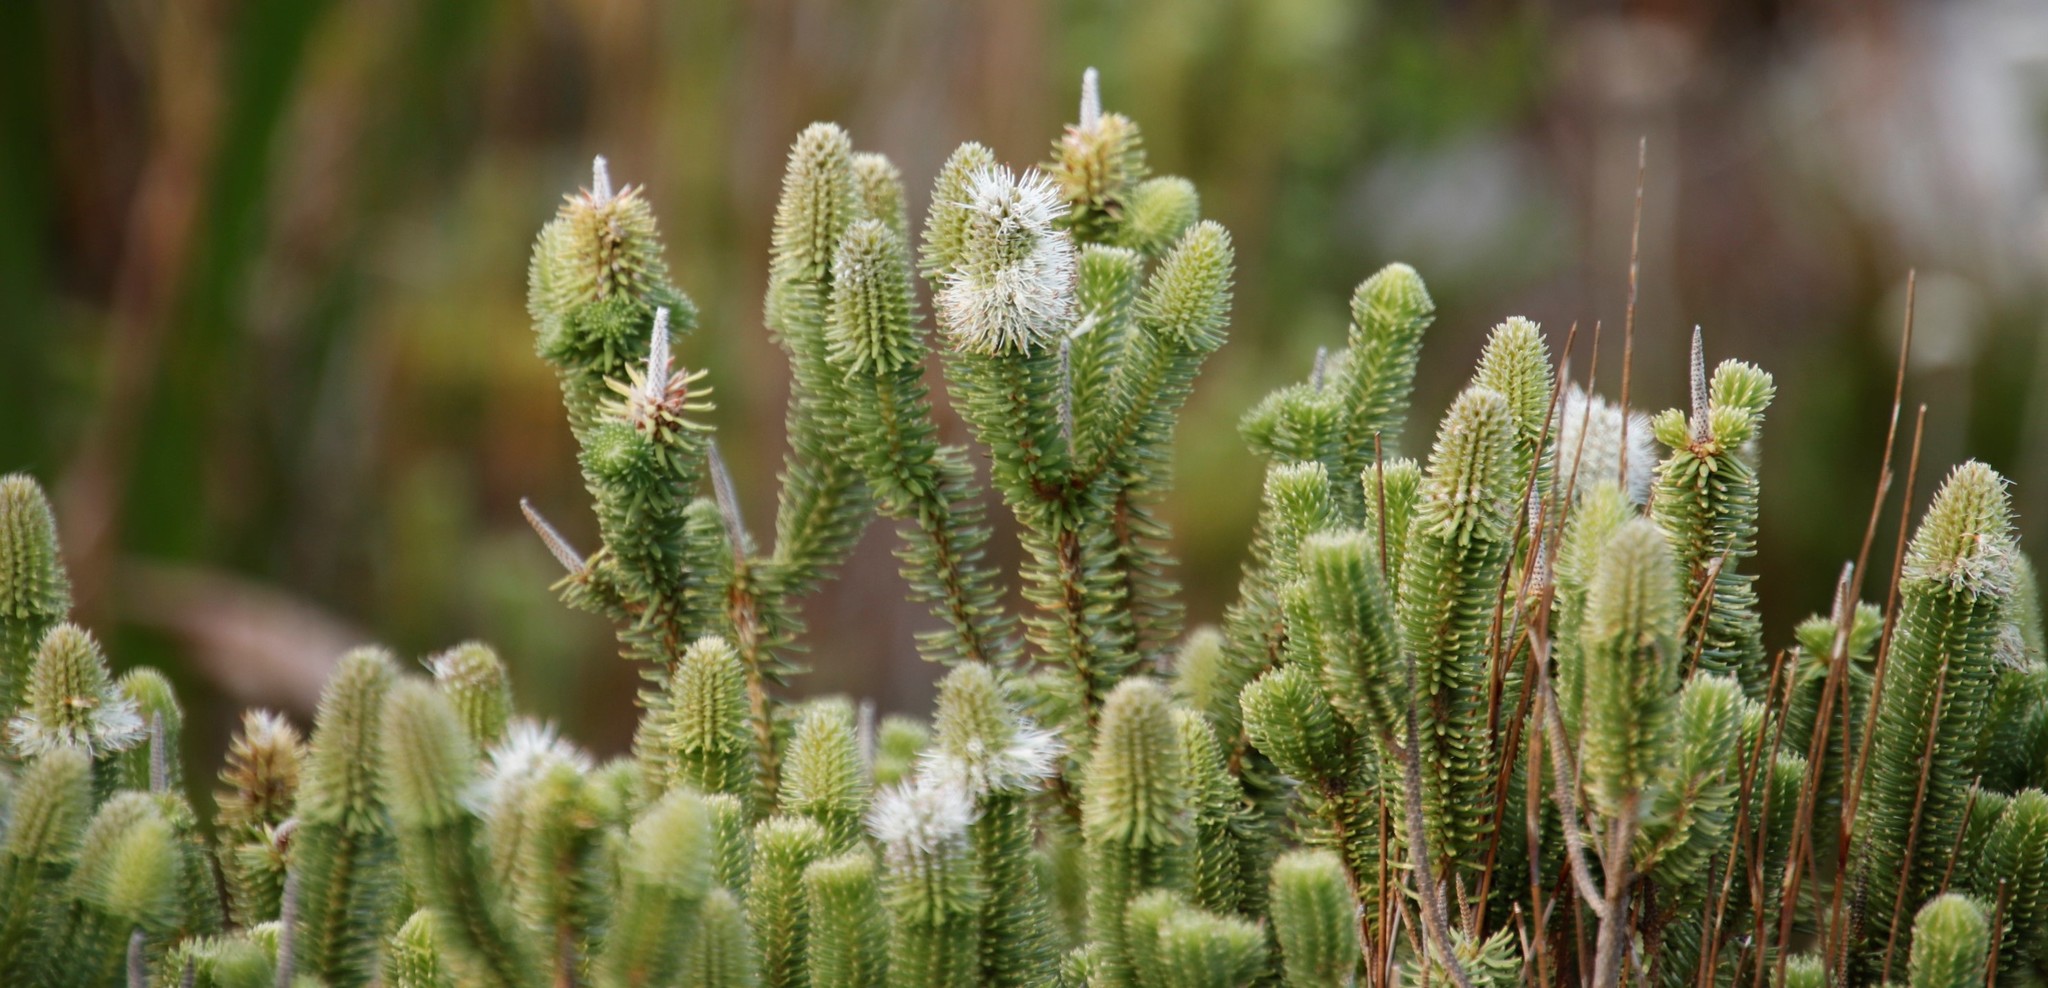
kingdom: Plantae
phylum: Tracheophyta
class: Magnoliopsida
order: Lamiales
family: Stilbaceae
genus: Stilbe
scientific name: Stilbe vestita
